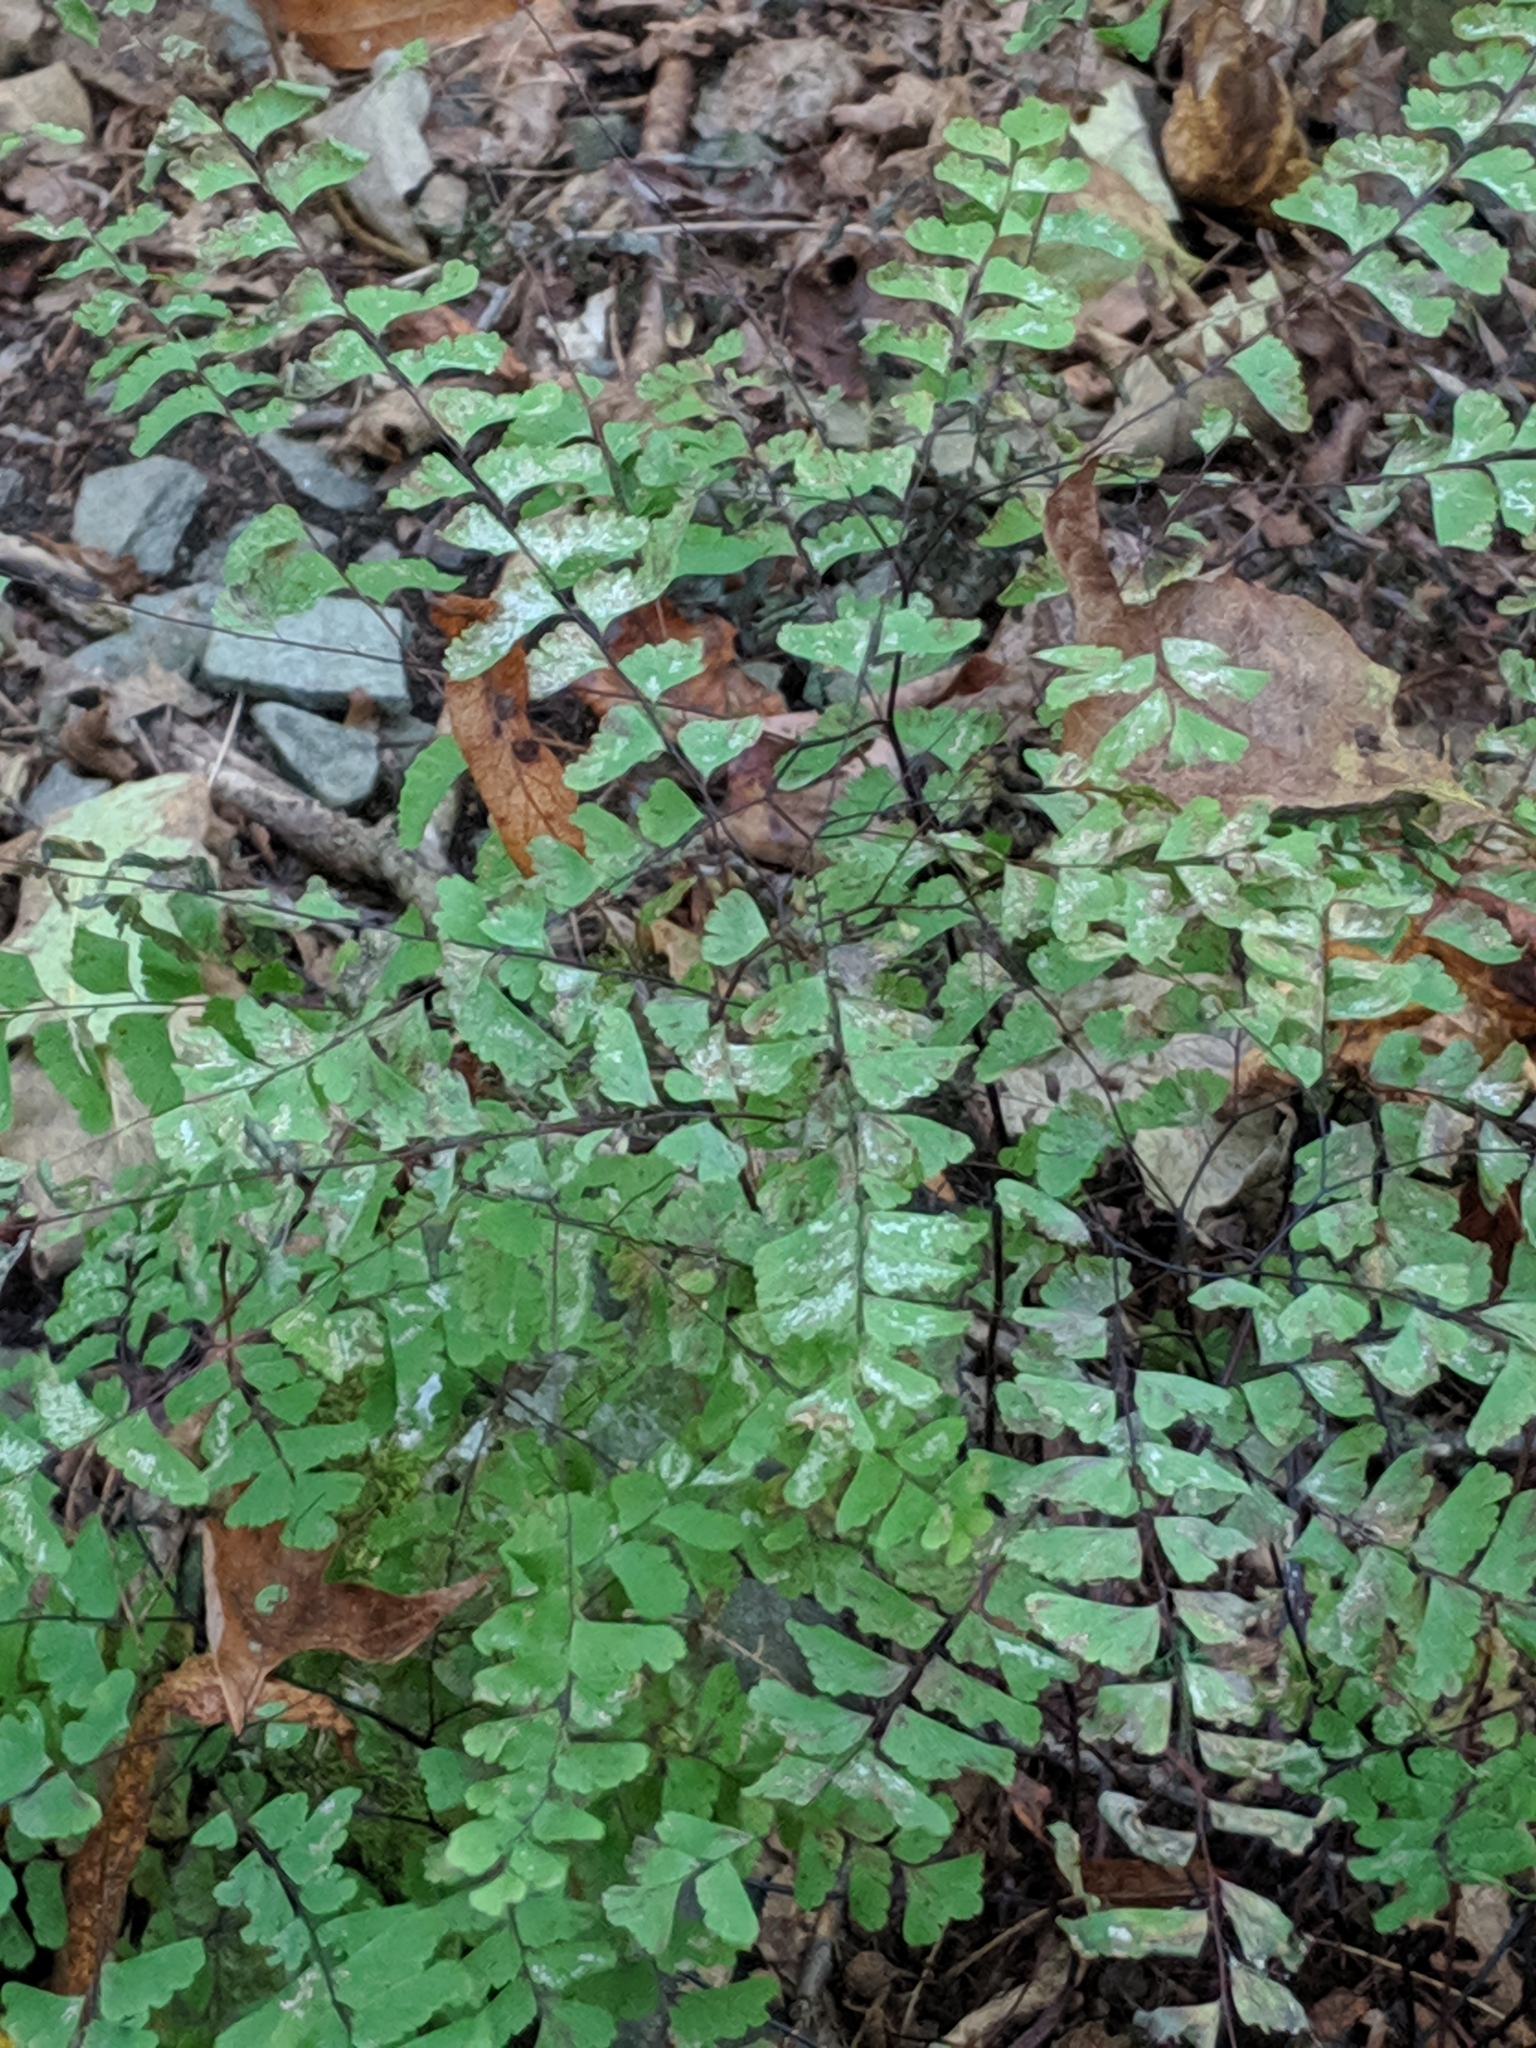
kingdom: Plantae
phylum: Tracheophyta
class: Polypodiopsida
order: Polypodiales
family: Pteridaceae
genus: Adiantum
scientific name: Adiantum pedatum
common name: Five-finger fern
